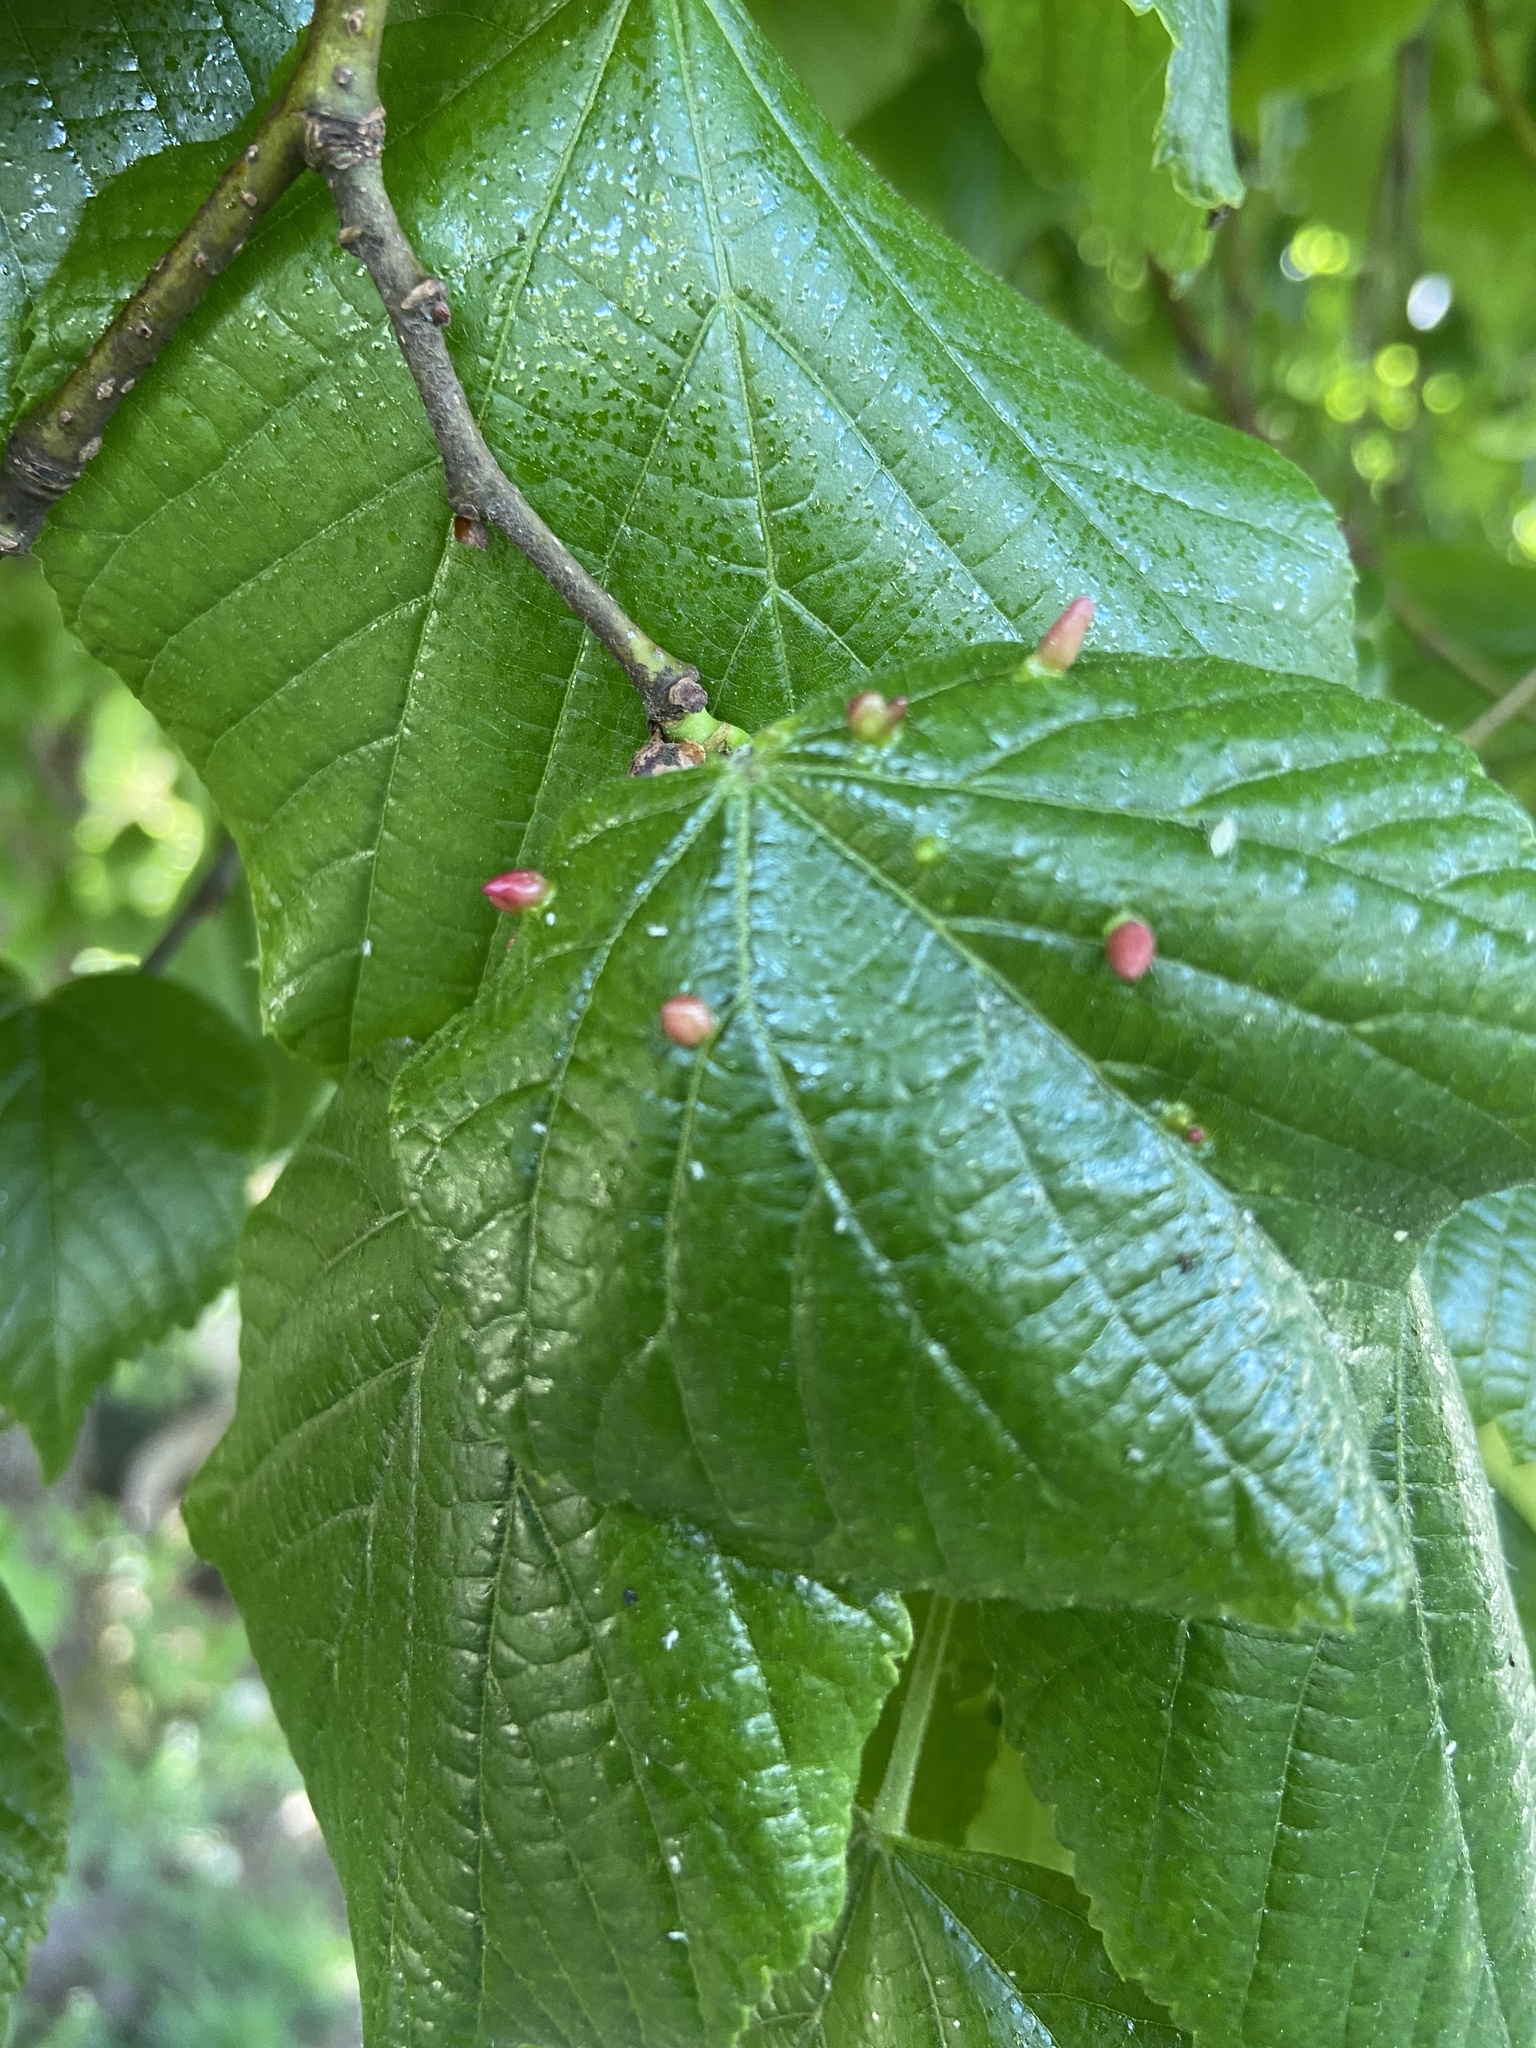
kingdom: Animalia
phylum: Arthropoda
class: Arachnida
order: Trombidiformes
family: Eriophyidae
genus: Eriophyes
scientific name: Eriophyes tiliae
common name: Red nail gall mite
